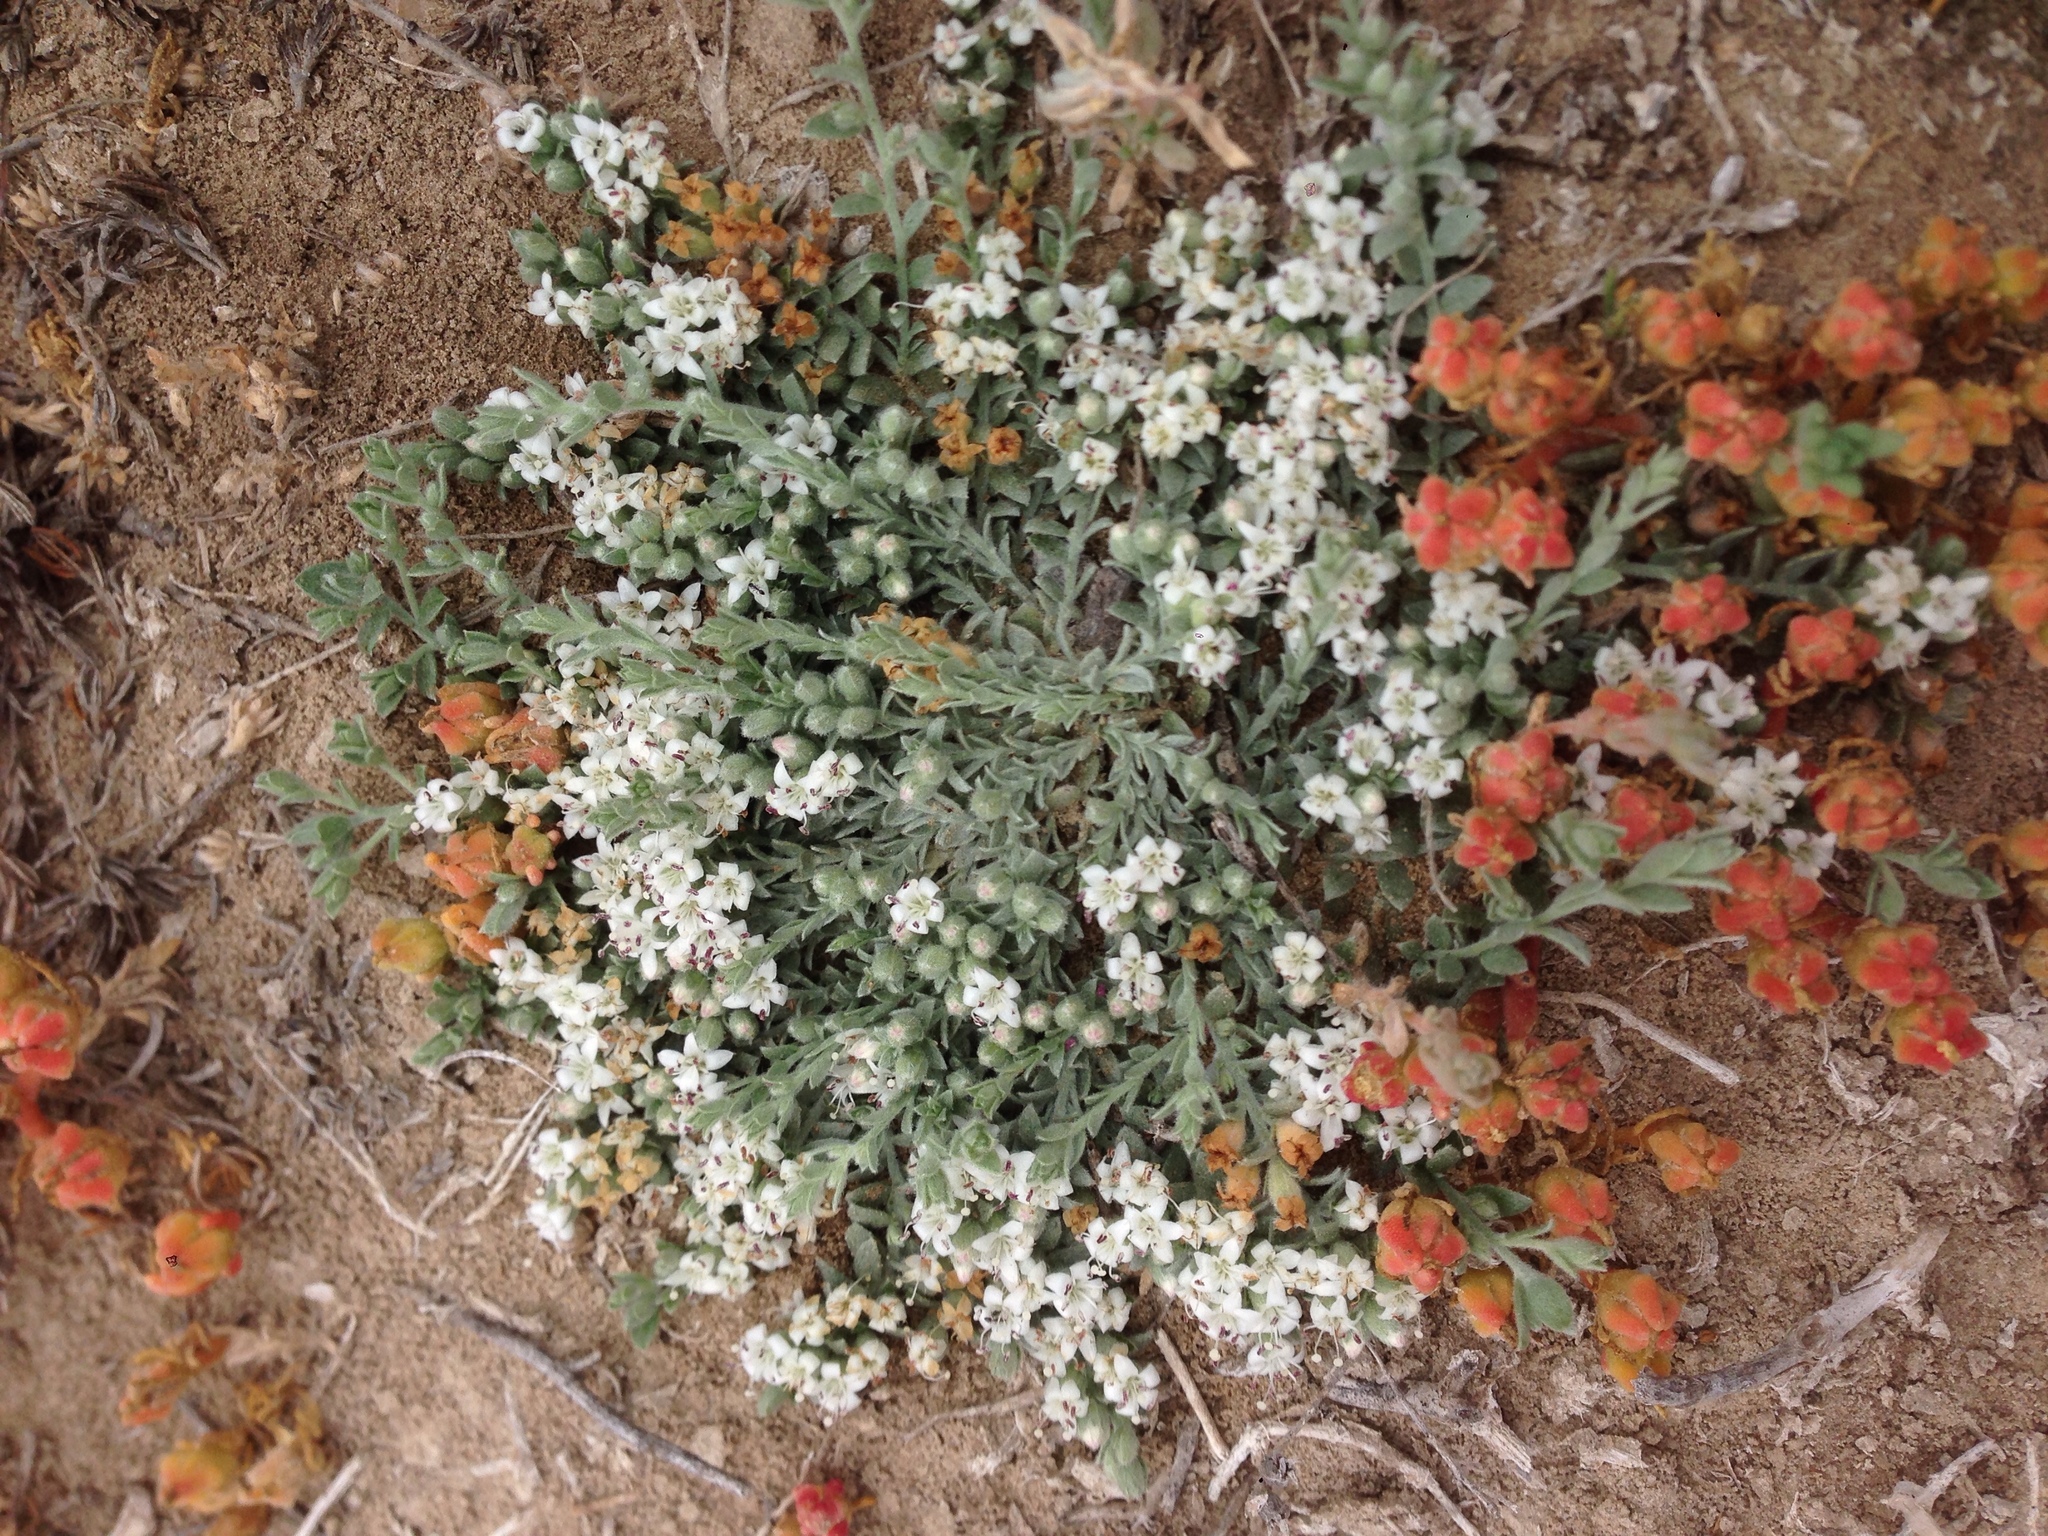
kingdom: Plantae
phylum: Tracheophyta
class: Magnoliopsida
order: Solanales
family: Convolvulaceae
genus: Cressa
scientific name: Cressa truxillensis
